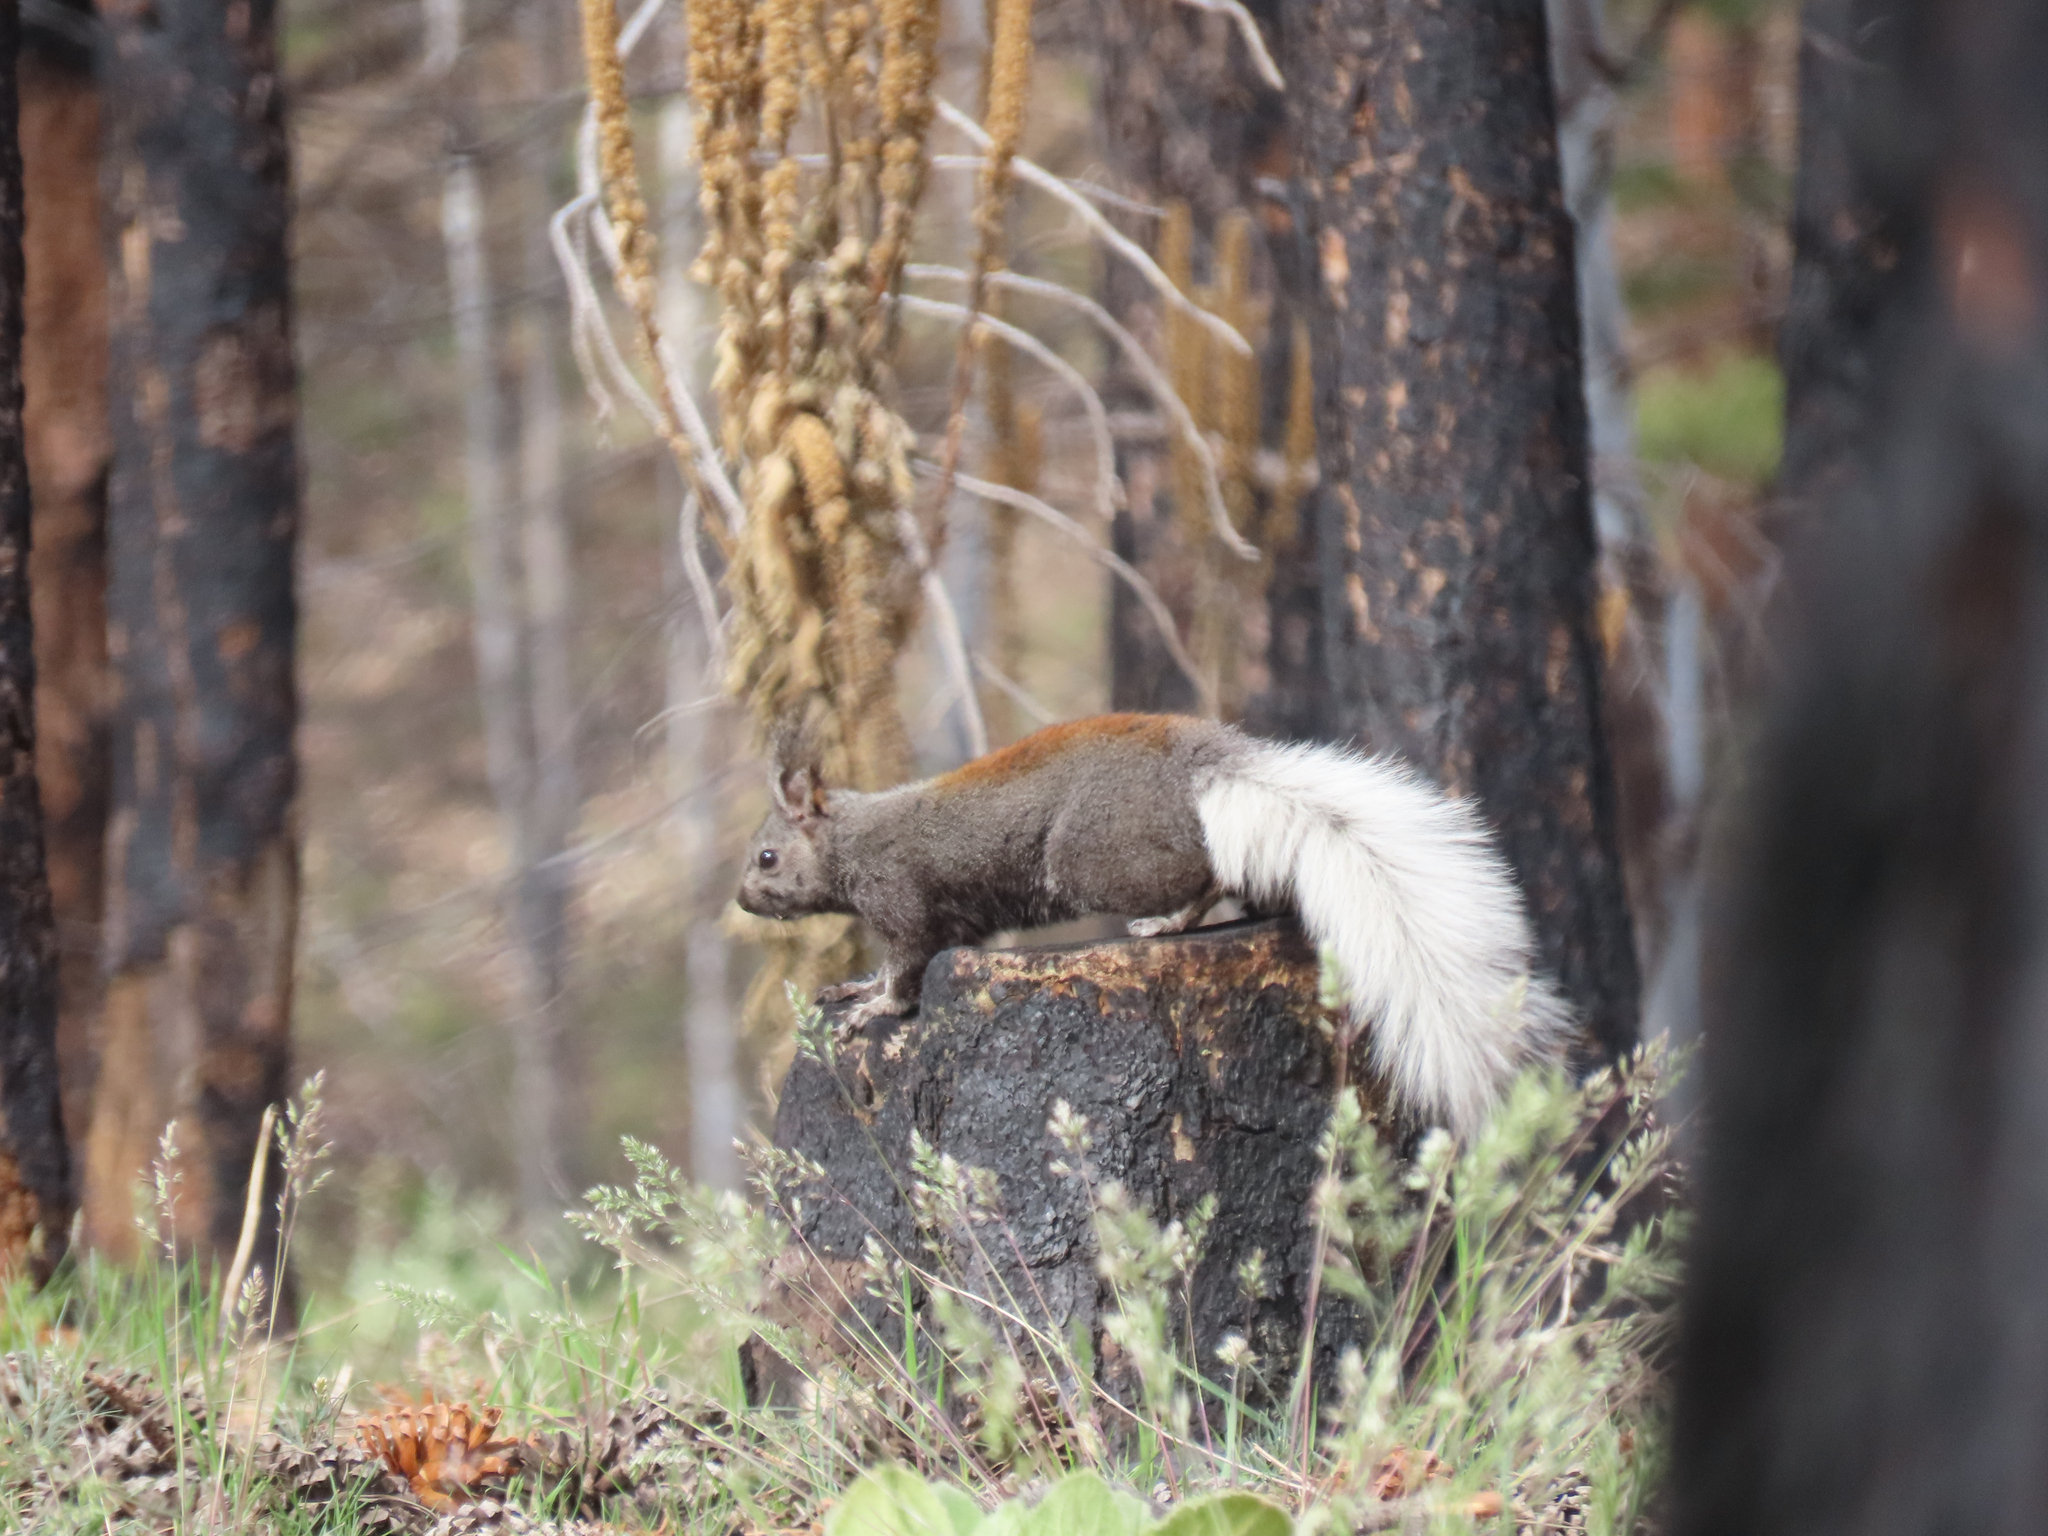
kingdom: Animalia
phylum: Chordata
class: Mammalia
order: Rodentia
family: Sciuridae
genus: Sciurus
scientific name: Sciurus aberti
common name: Abert's squirrel
